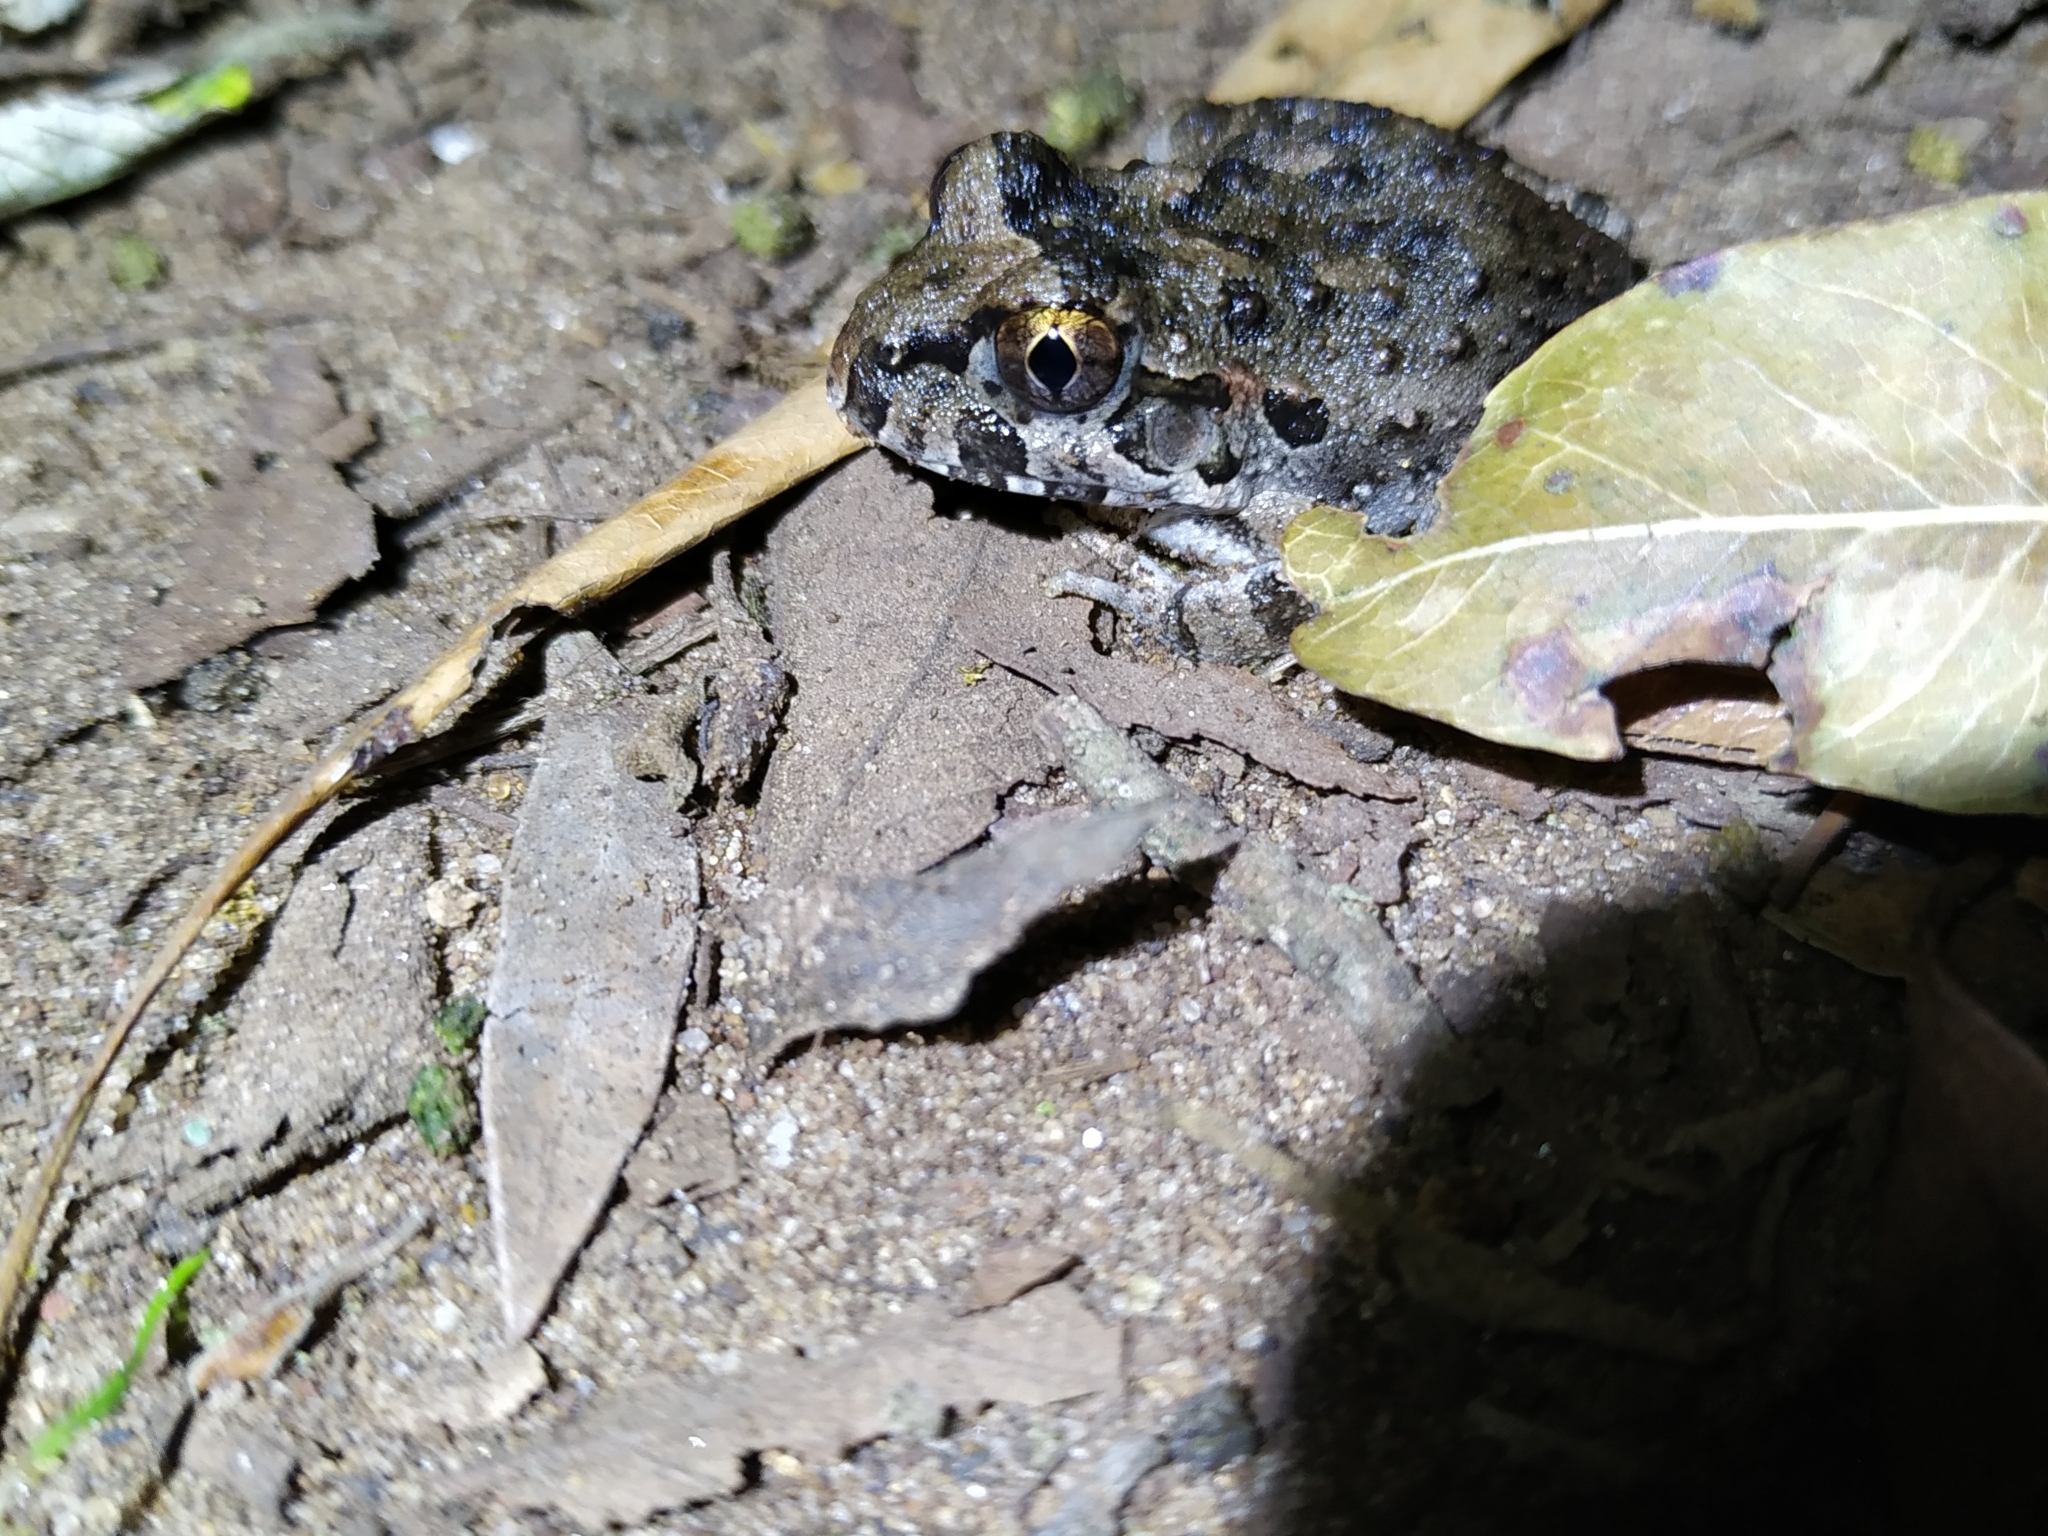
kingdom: Animalia
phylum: Chordata
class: Amphibia
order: Anura
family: Alsodidae
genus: Limnomedusa
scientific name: Limnomedusa macroglossa
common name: Rapids frog
